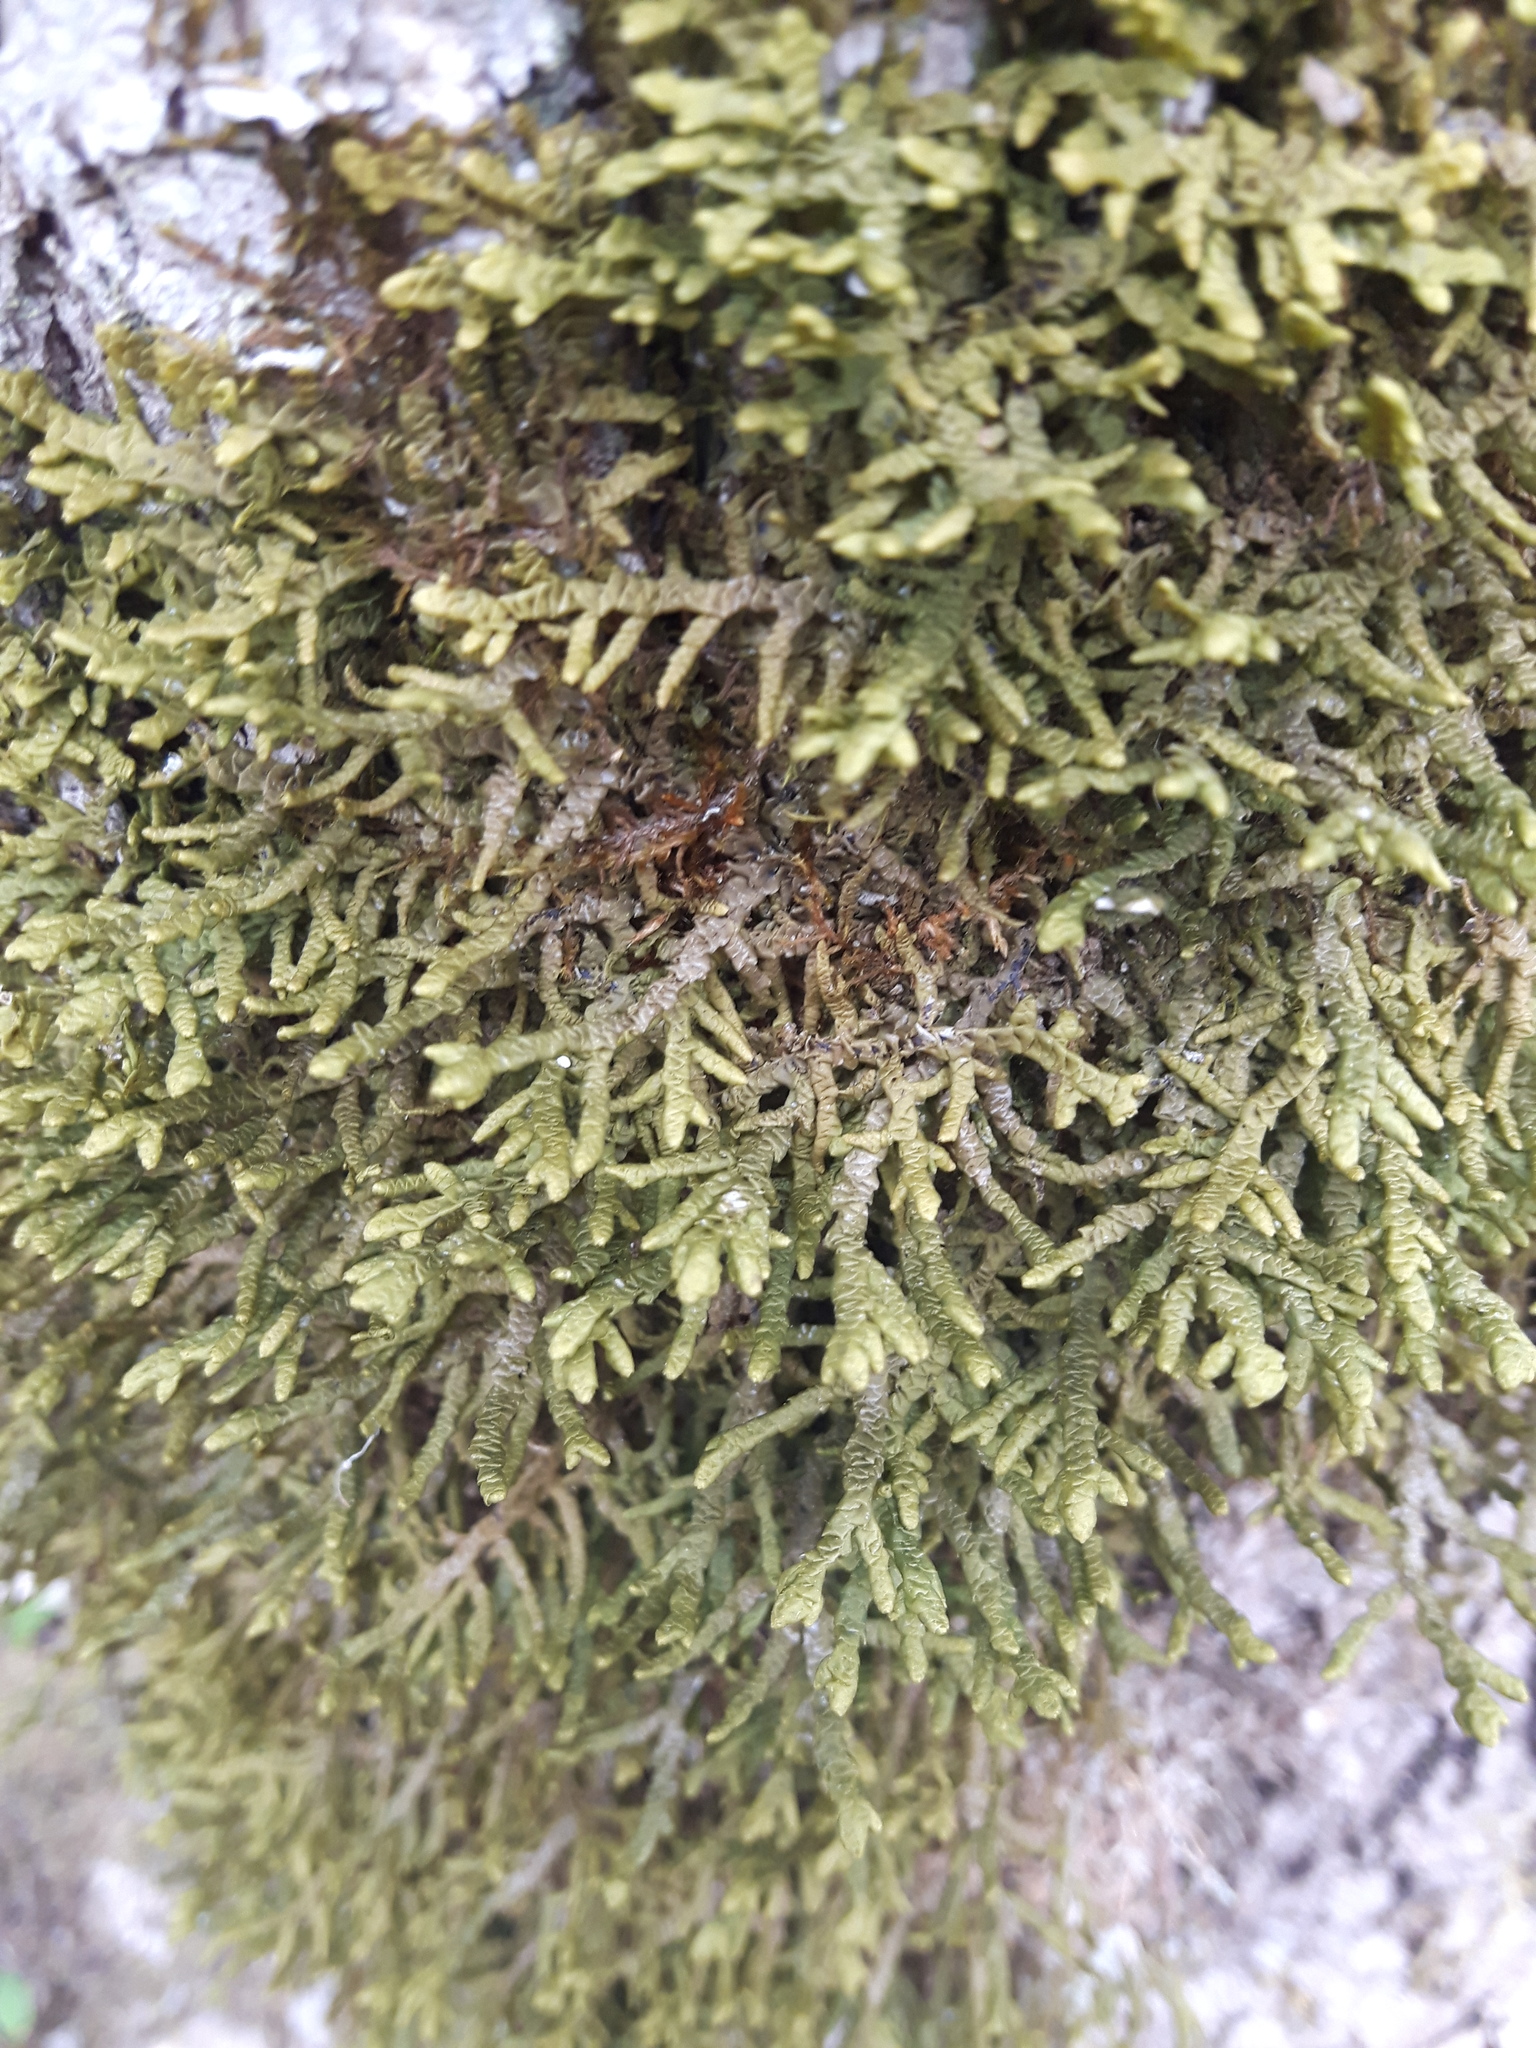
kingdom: Plantae
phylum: Marchantiophyta
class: Jungermanniopsida
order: Porellales
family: Porellaceae
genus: Porella
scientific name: Porella platyphylla
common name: Wall scalewort
